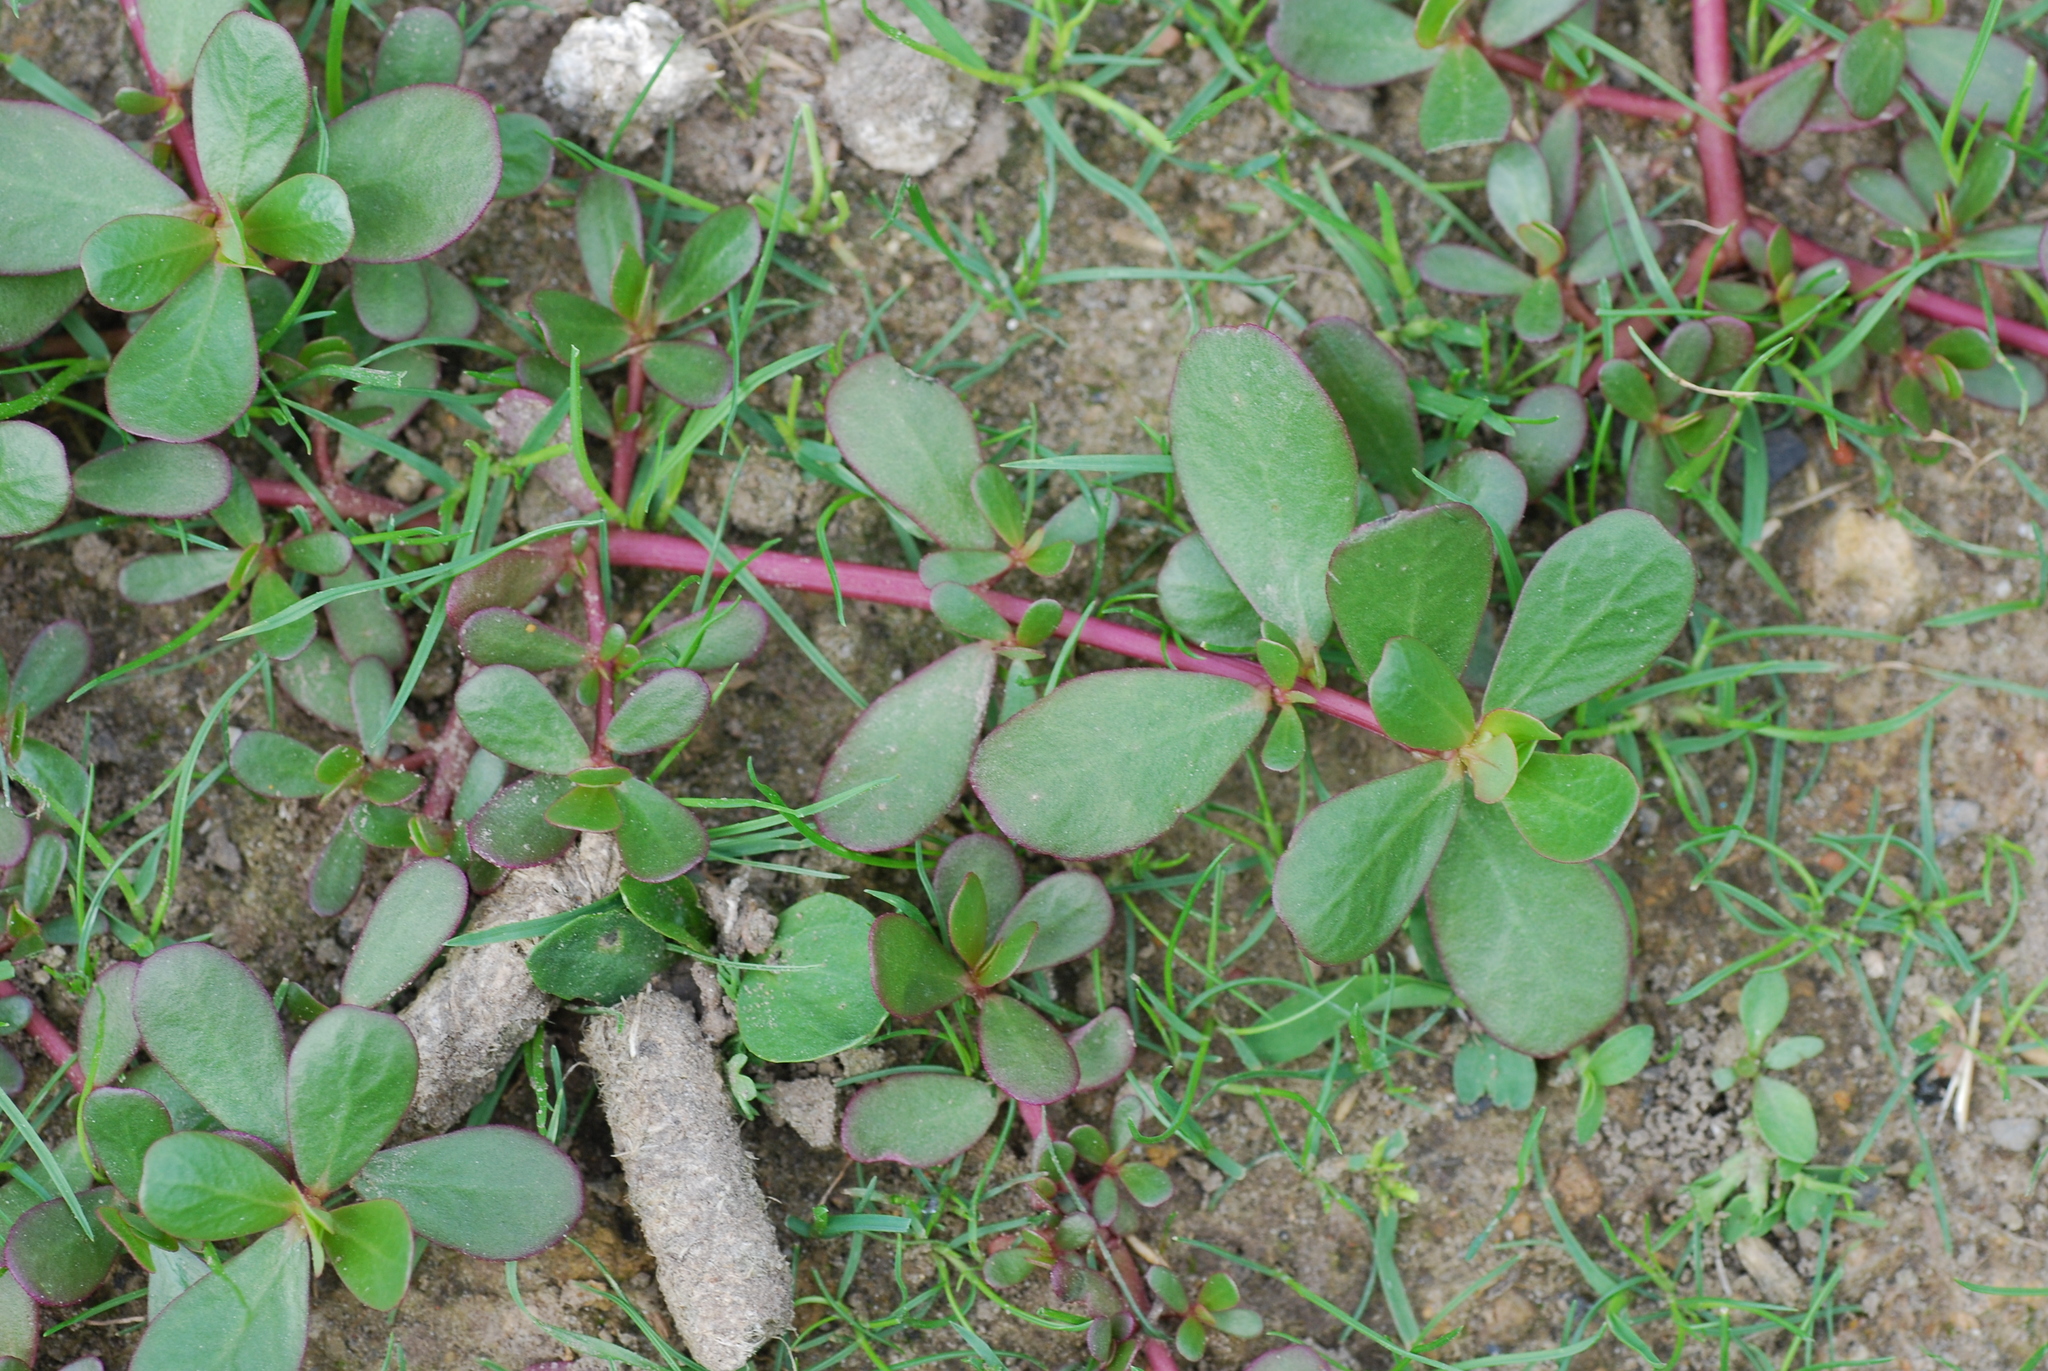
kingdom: Plantae
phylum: Tracheophyta
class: Magnoliopsida
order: Caryophyllales
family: Portulacaceae
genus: Portulaca
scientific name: Portulaca oleracea
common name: Common purslane
